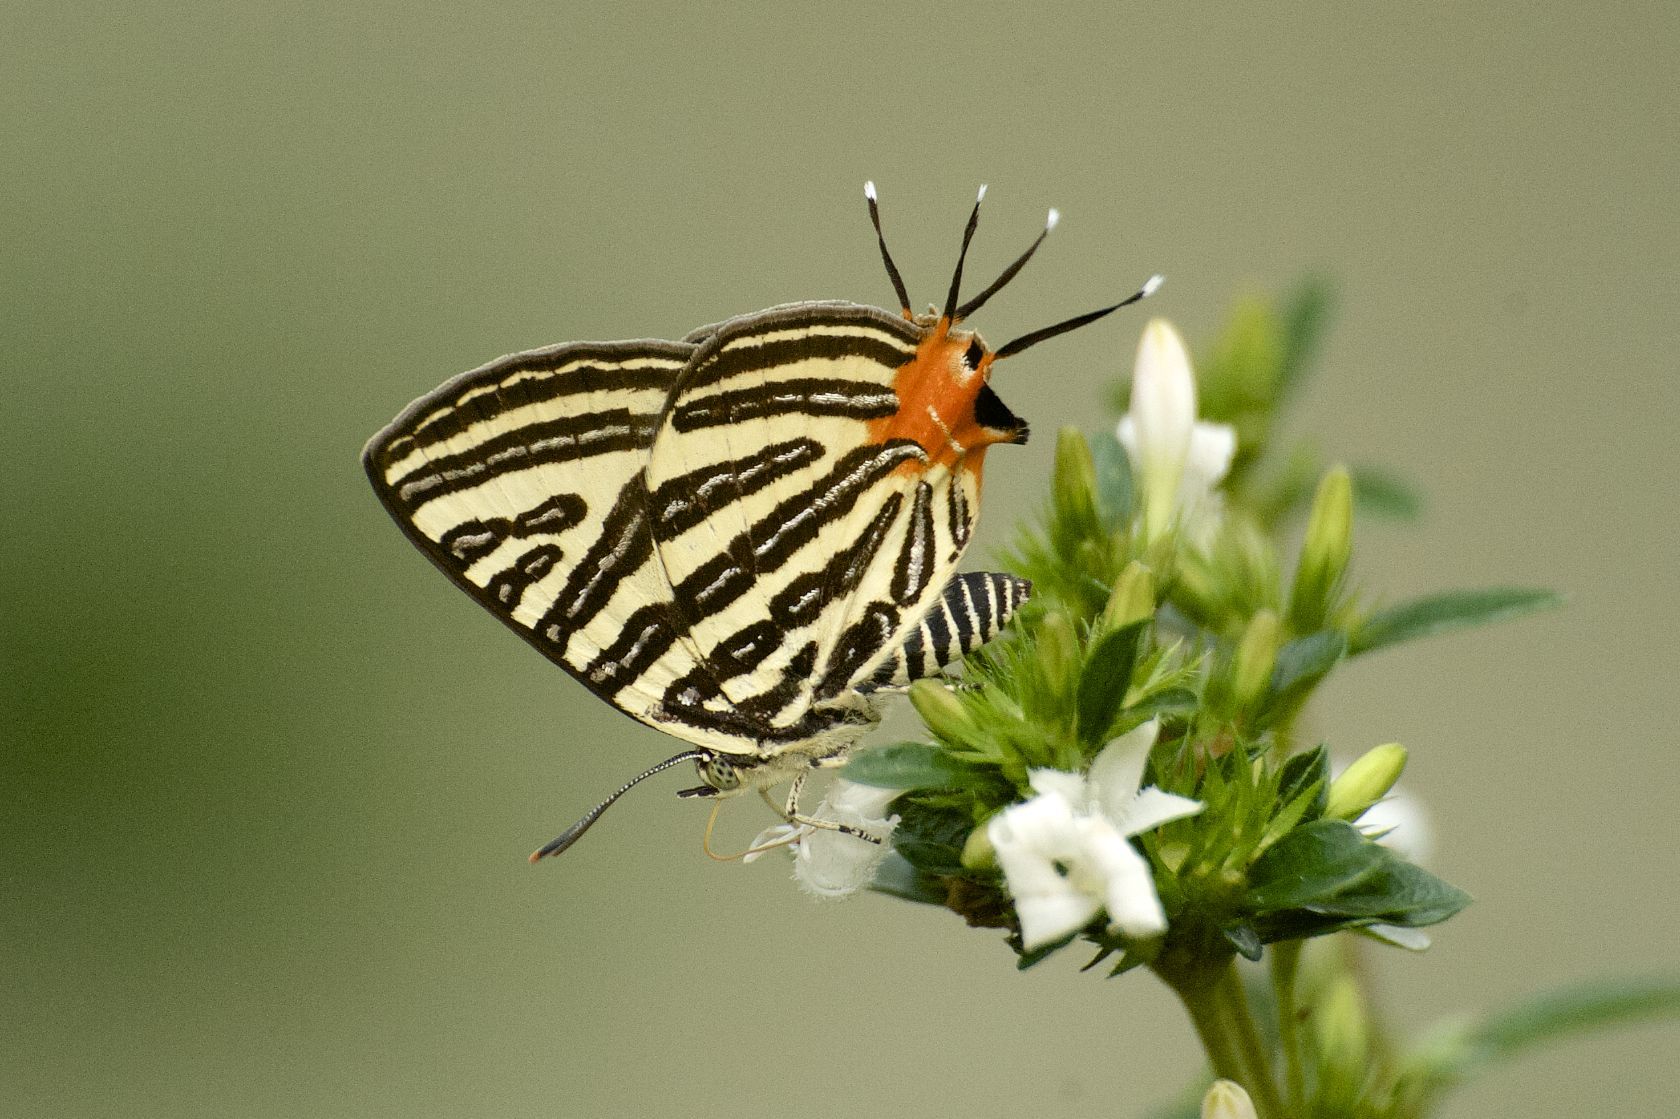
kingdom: Animalia
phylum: Arthropoda
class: Insecta
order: Lepidoptera
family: Lycaenidae
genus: Cigaritis
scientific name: Cigaritis lohita
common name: Long-banded silverline
